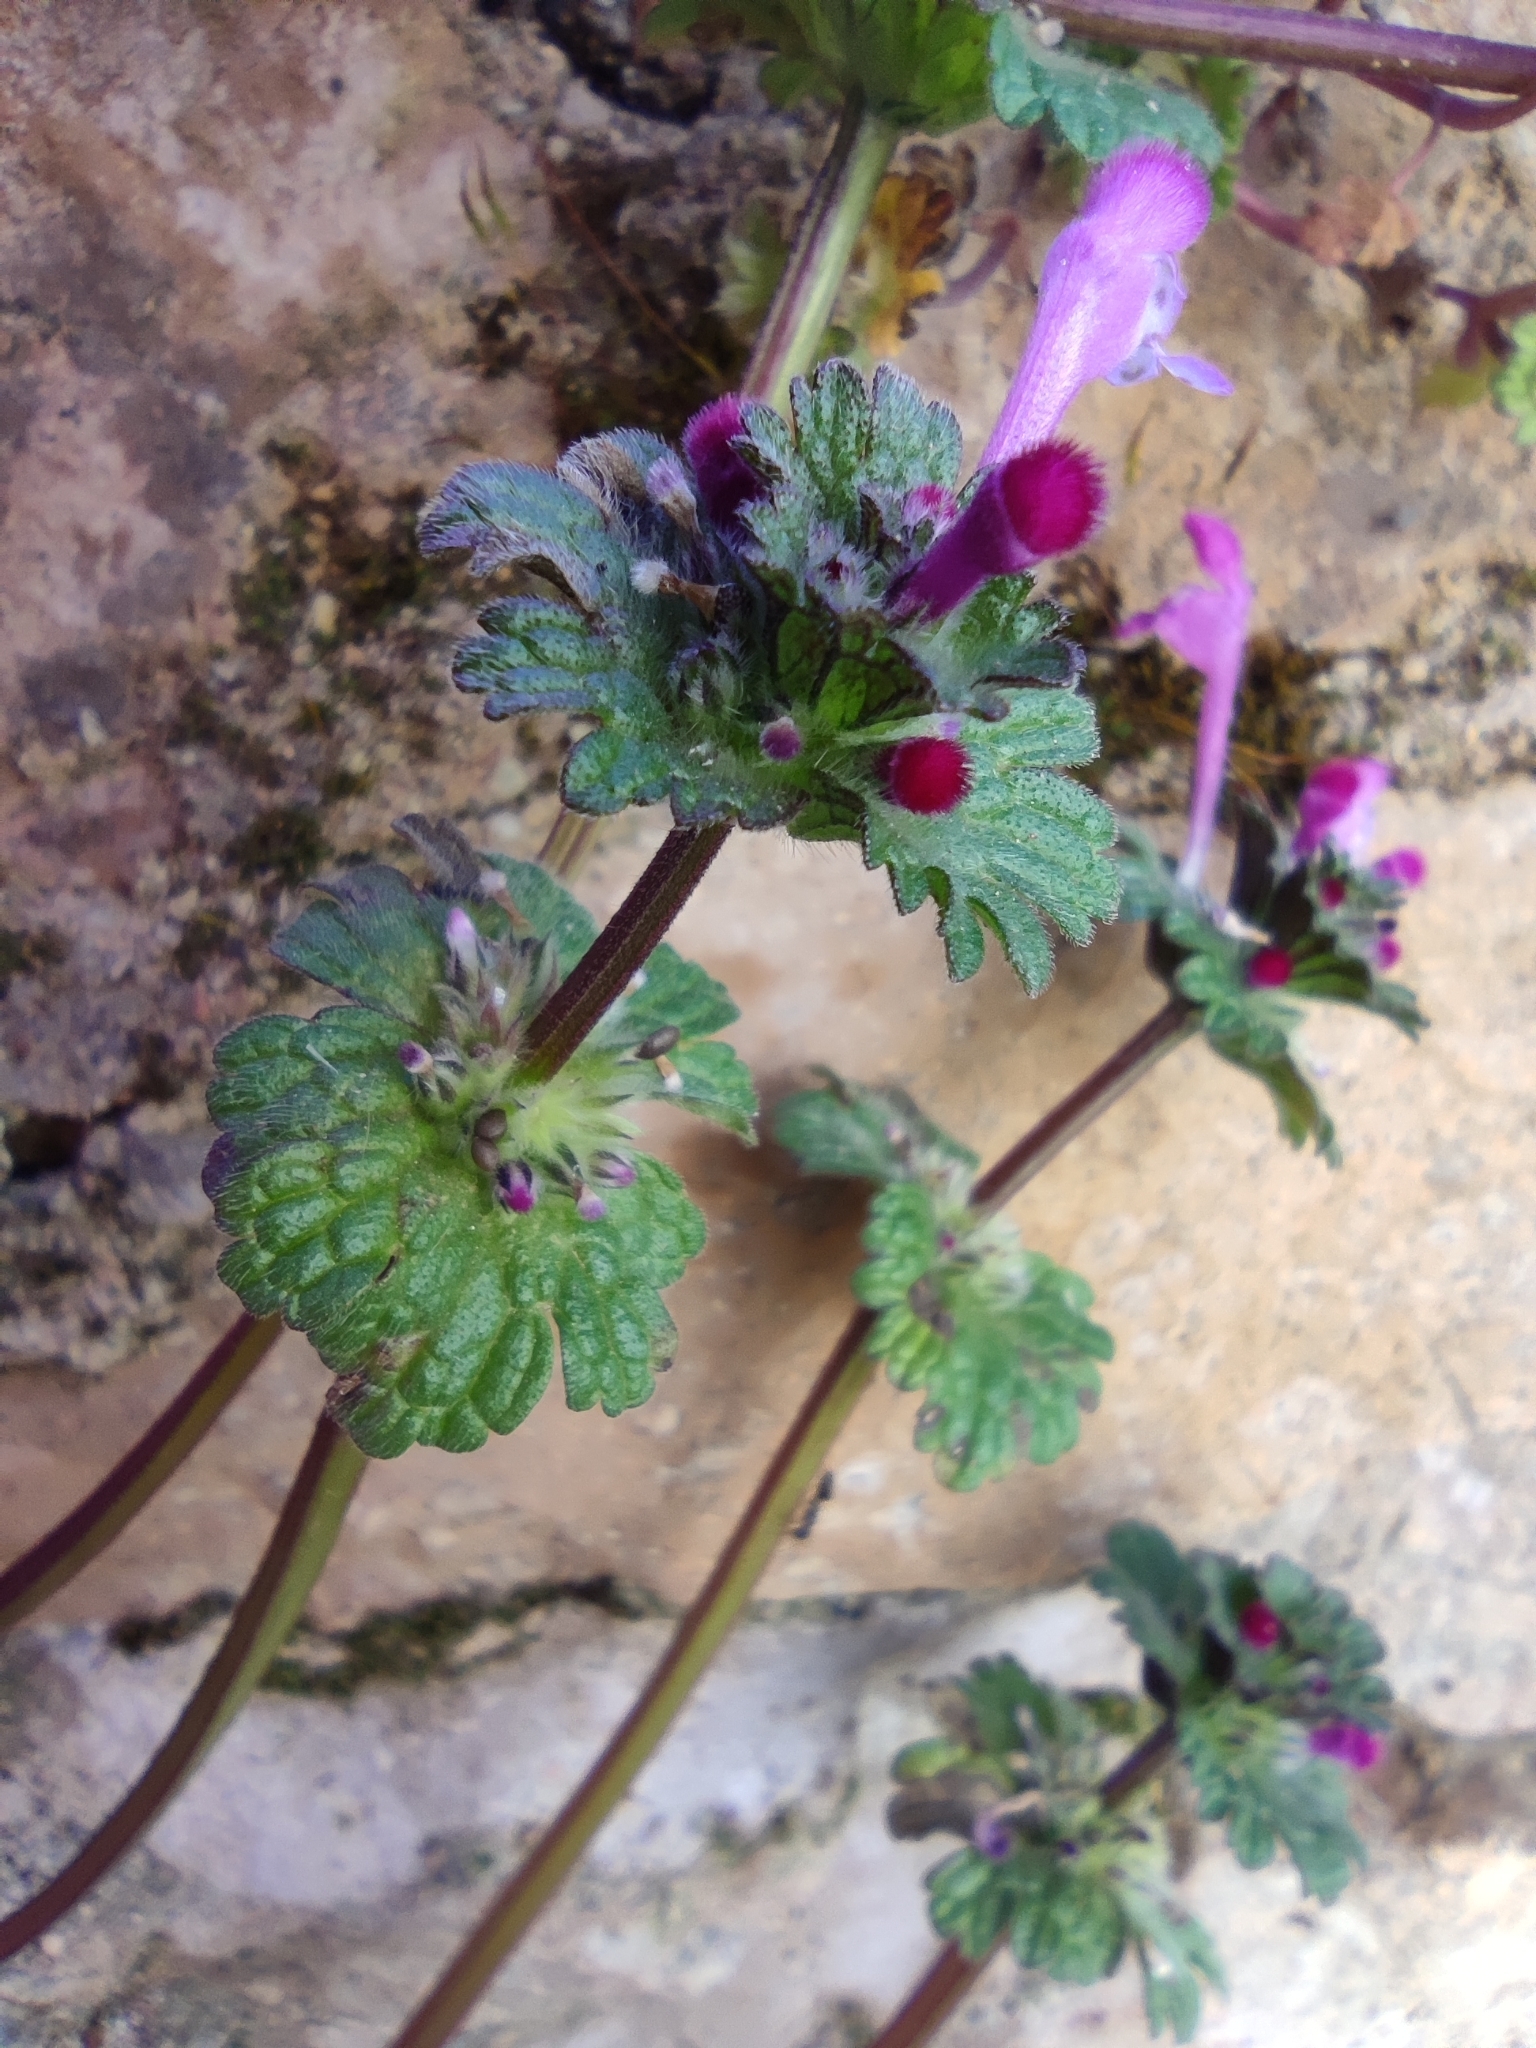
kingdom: Plantae
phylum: Tracheophyta
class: Magnoliopsida
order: Lamiales
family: Lamiaceae
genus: Lamium
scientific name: Lamium amplexicaule
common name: Henbit dead-nettle
